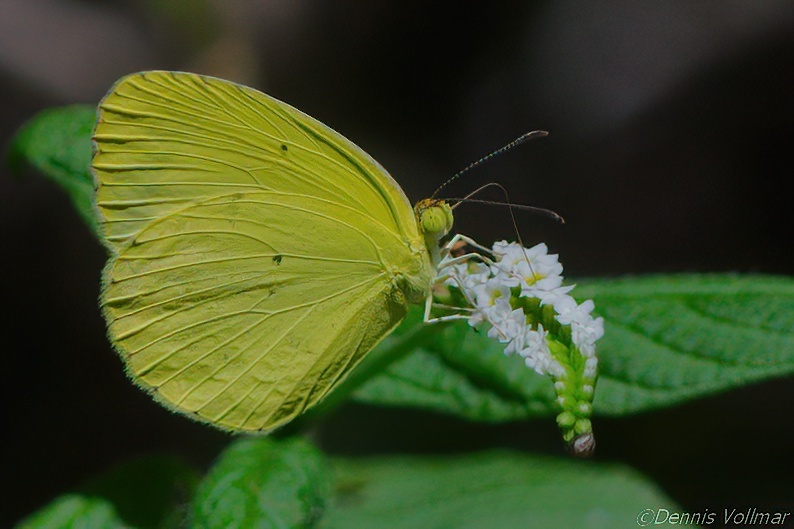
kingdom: Animalia
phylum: Arthropoda
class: Insecta
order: Lepidoptera
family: Pieridae
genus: Pyrisitia
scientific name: Pyrisitia nise
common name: Mimosa yellow
